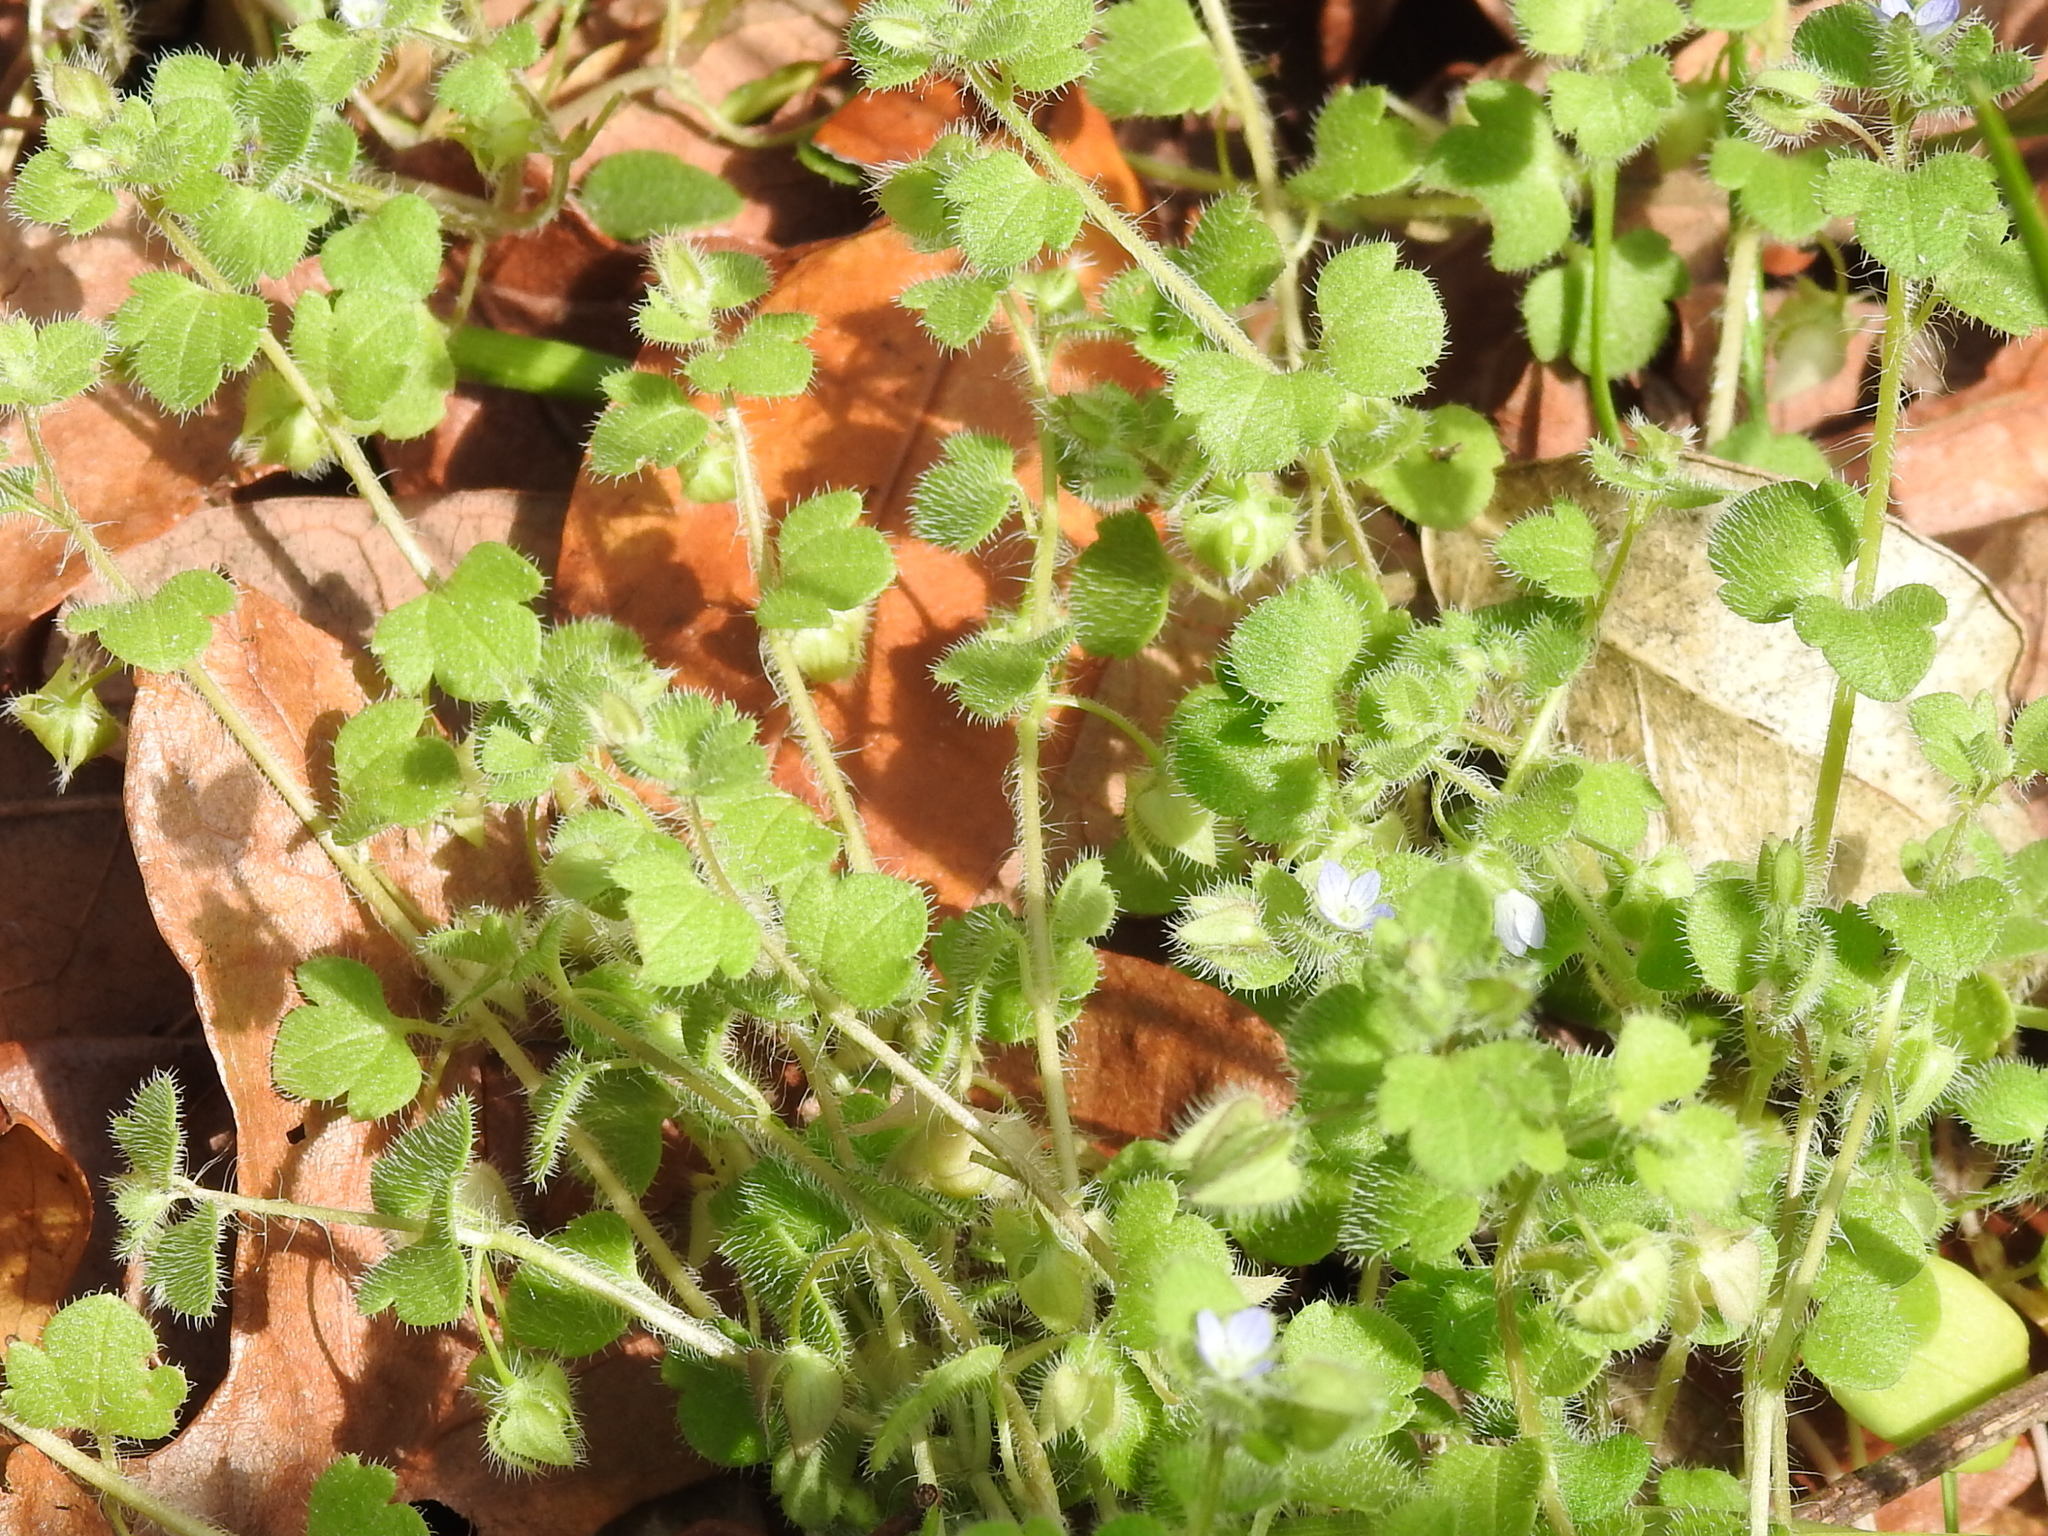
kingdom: Plantae
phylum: Tracheophyta
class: Magnoliopsida
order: Lamiales
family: Plantaginaceae
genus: Veronica
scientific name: Veronica hederifolia
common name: Ivy-leaved speedwell
